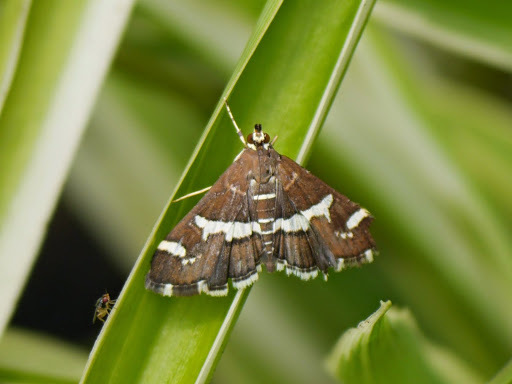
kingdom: Animalia
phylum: Arthropoda
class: Insecta
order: Lepidoptera
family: Crambidae
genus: Spoladea
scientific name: Spoladea recurvalis
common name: Beet webworm moth
